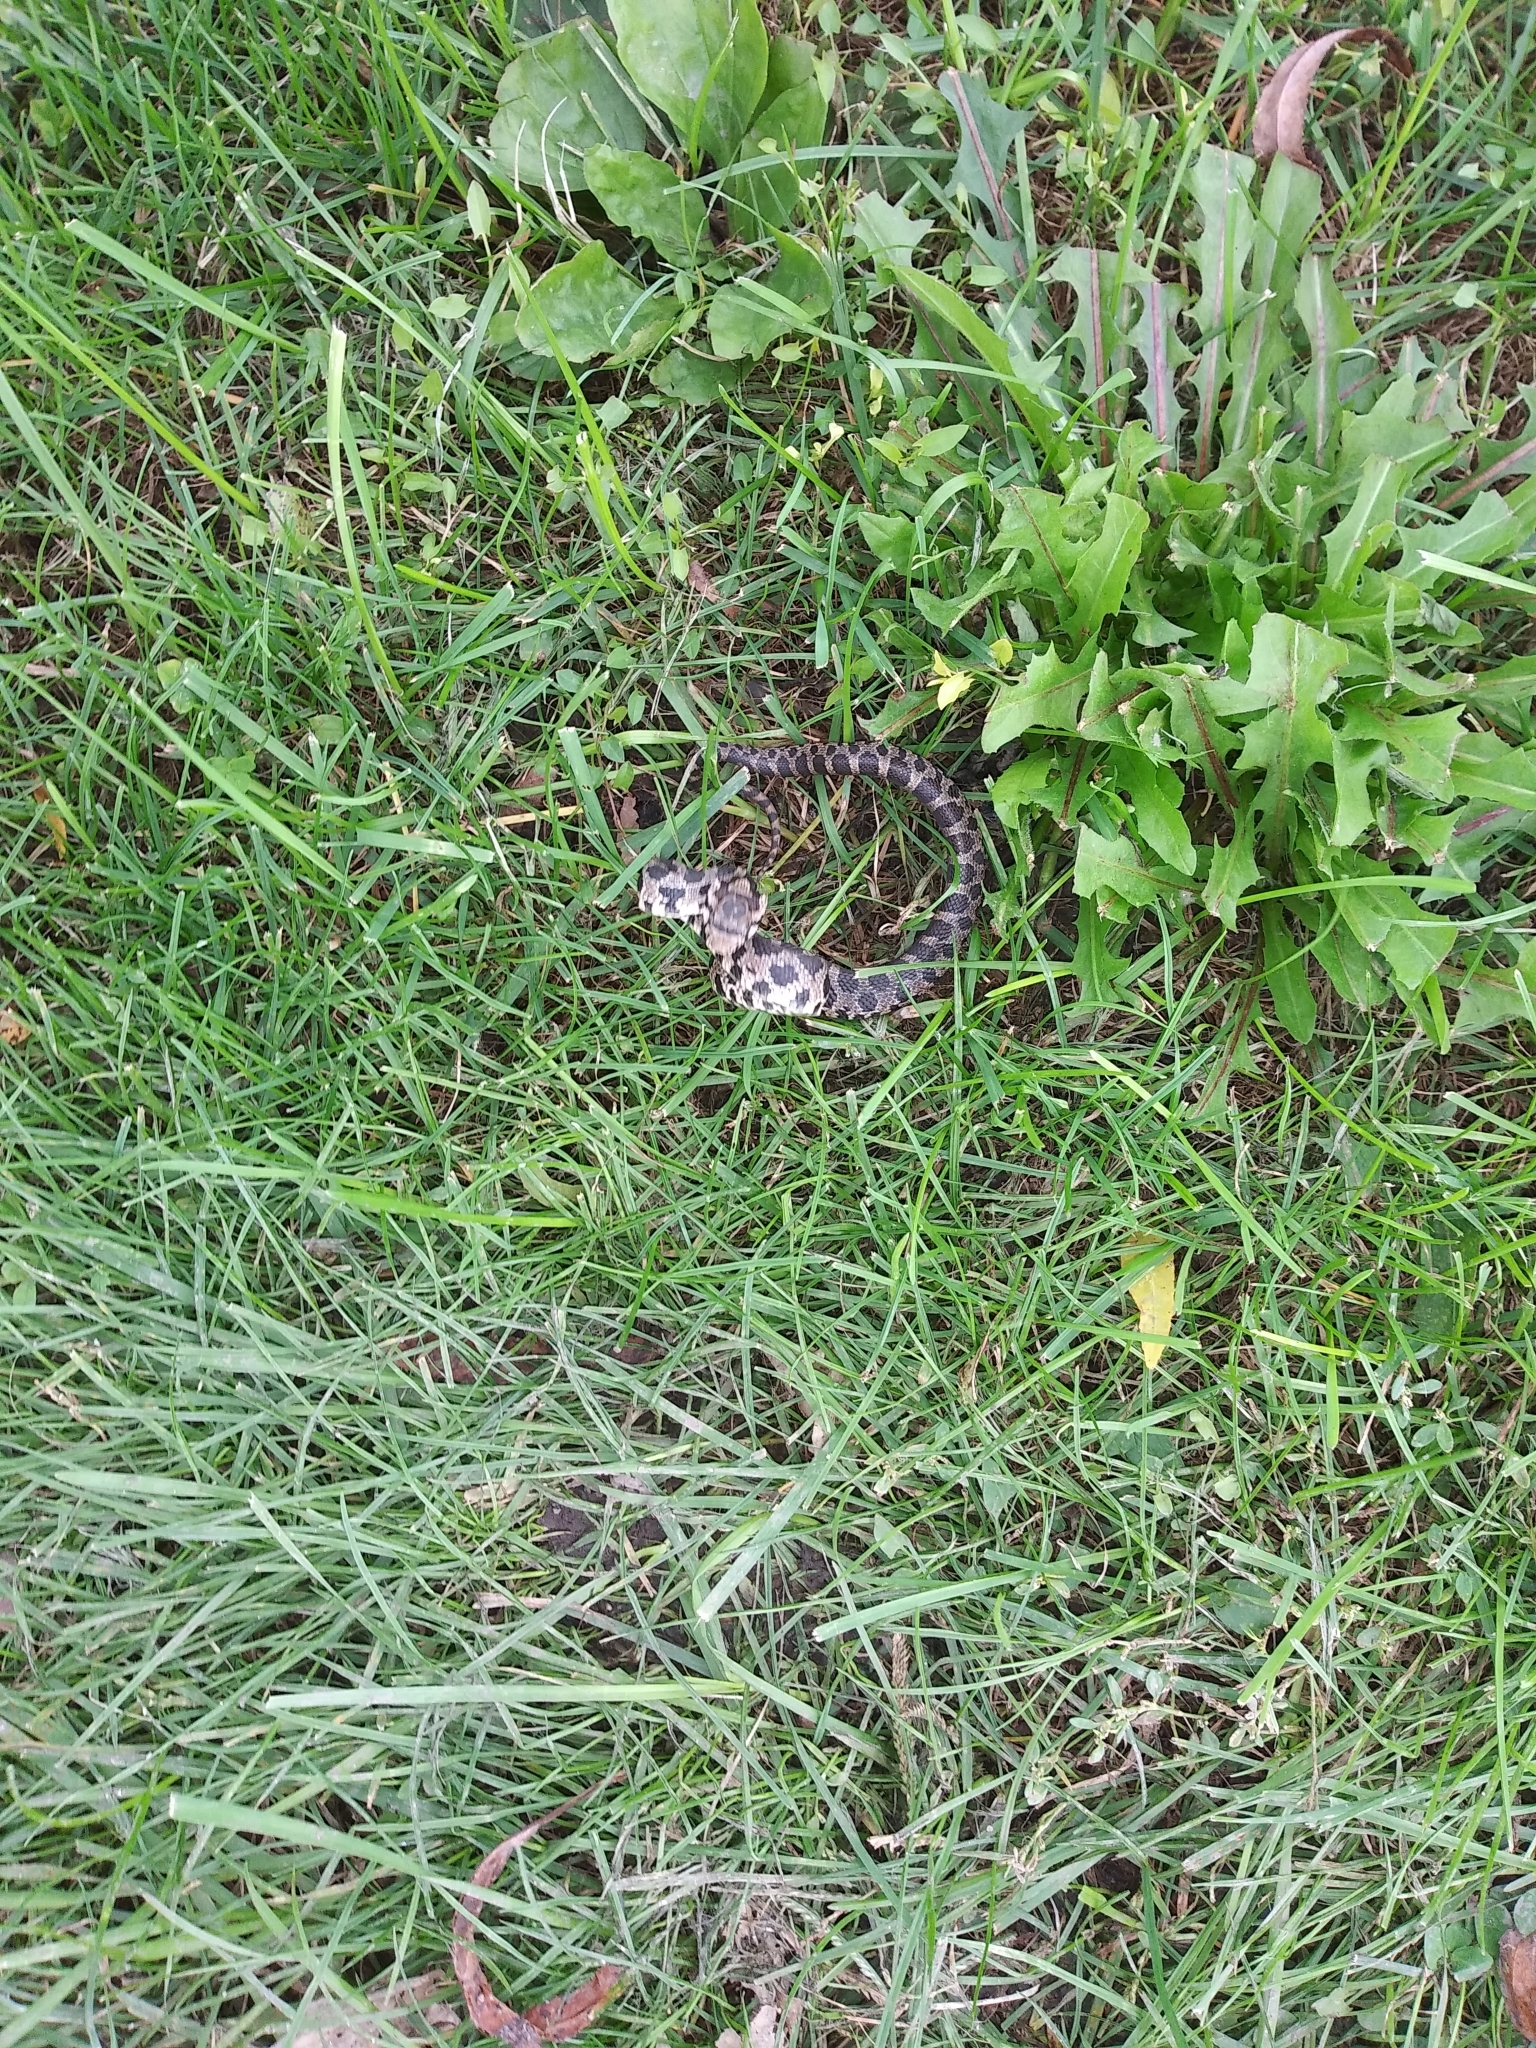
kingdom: Animalia
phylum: Chordata
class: Squamata
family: Colubridae
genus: Pantherophis
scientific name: Pantherophis vulpinus
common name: Eastern fox snake
